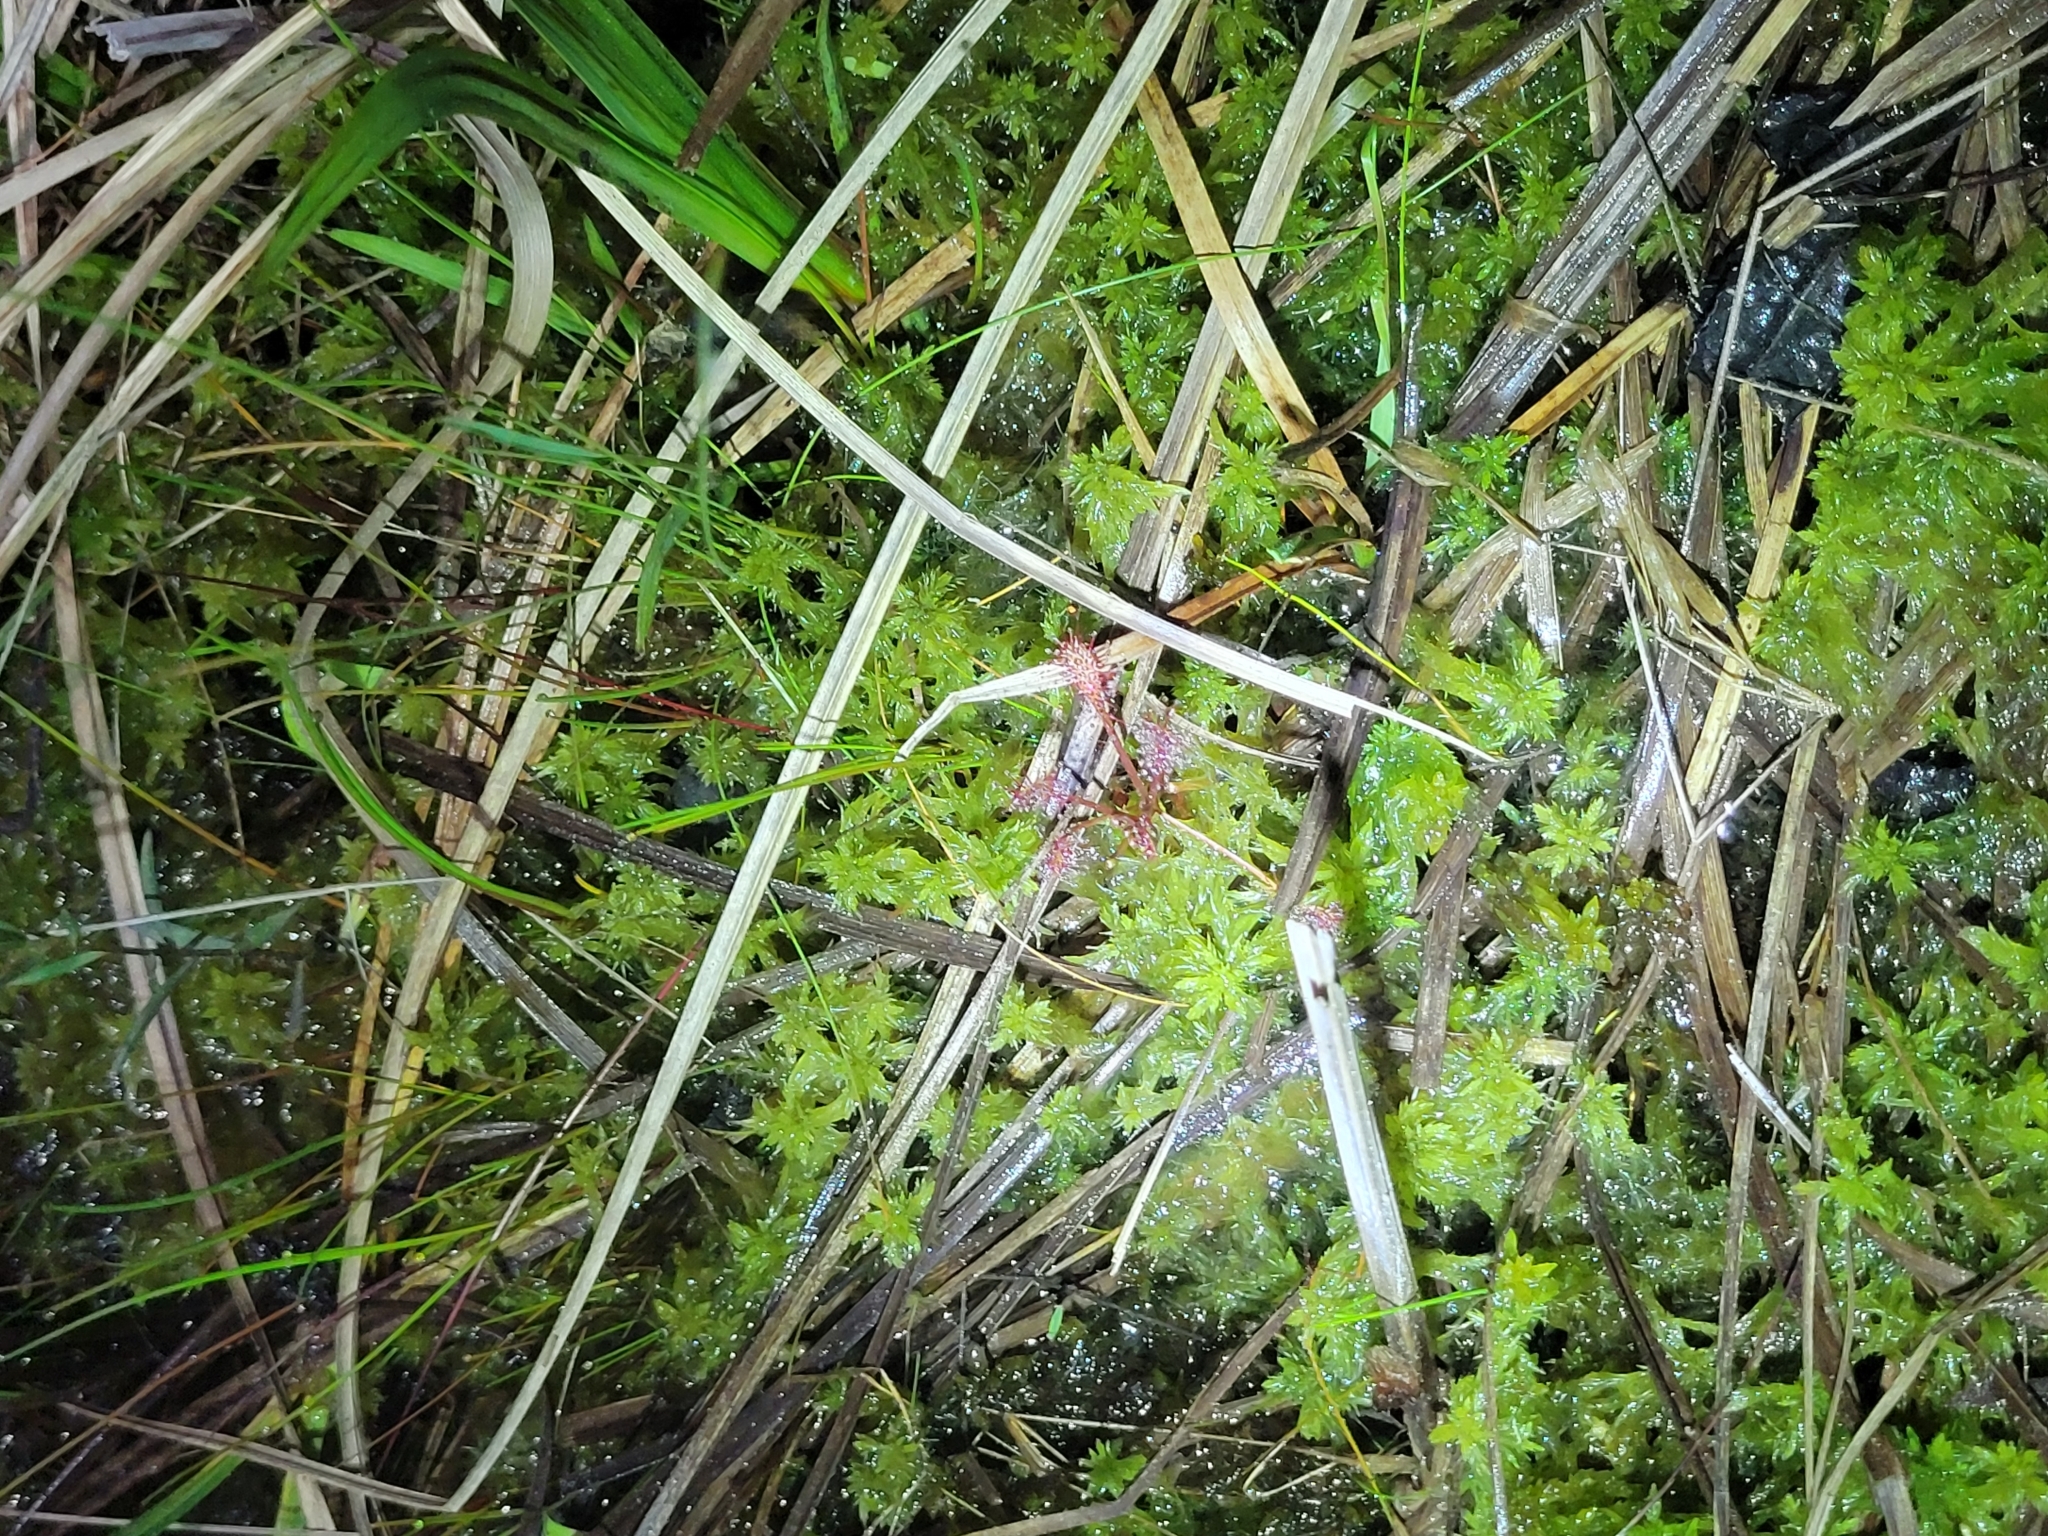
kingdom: Plantae
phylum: Tracheophyta
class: Magnoliopsida
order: Caryophyllales
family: Droseraceae
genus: Drosera
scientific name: Drosera intermedia
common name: Oblong-leaved sundew
